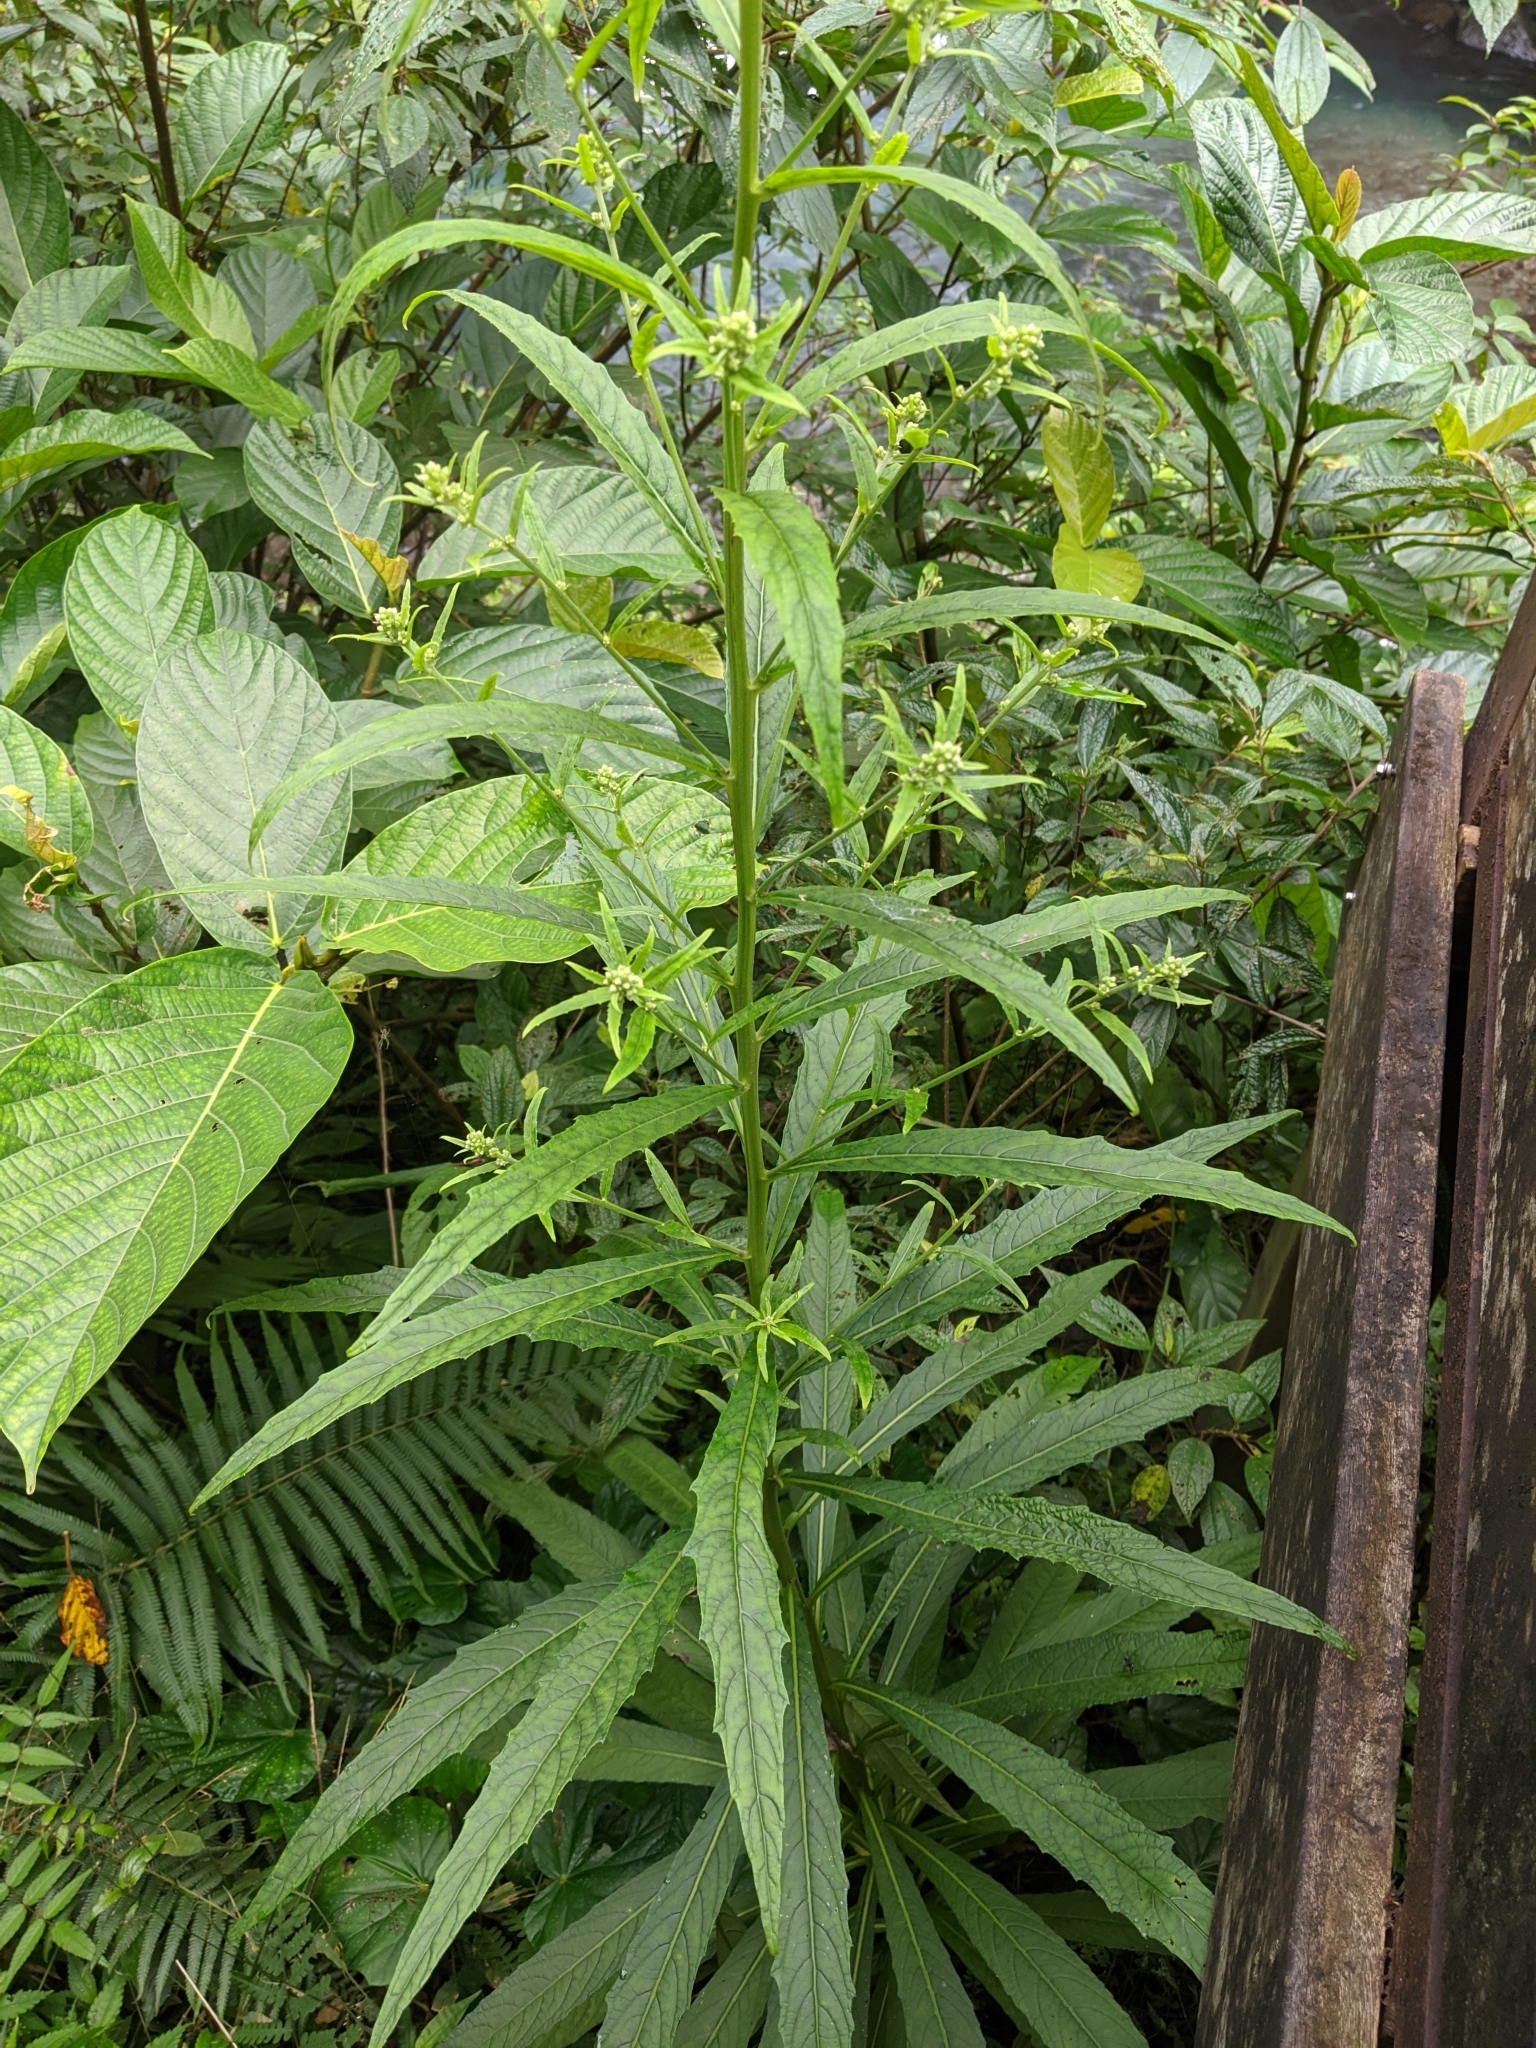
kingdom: Plantae
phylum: Tracheophyta
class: Magnoliopsida
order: Asterales
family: Asteraceae
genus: Blumea
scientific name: Blumea linearis
